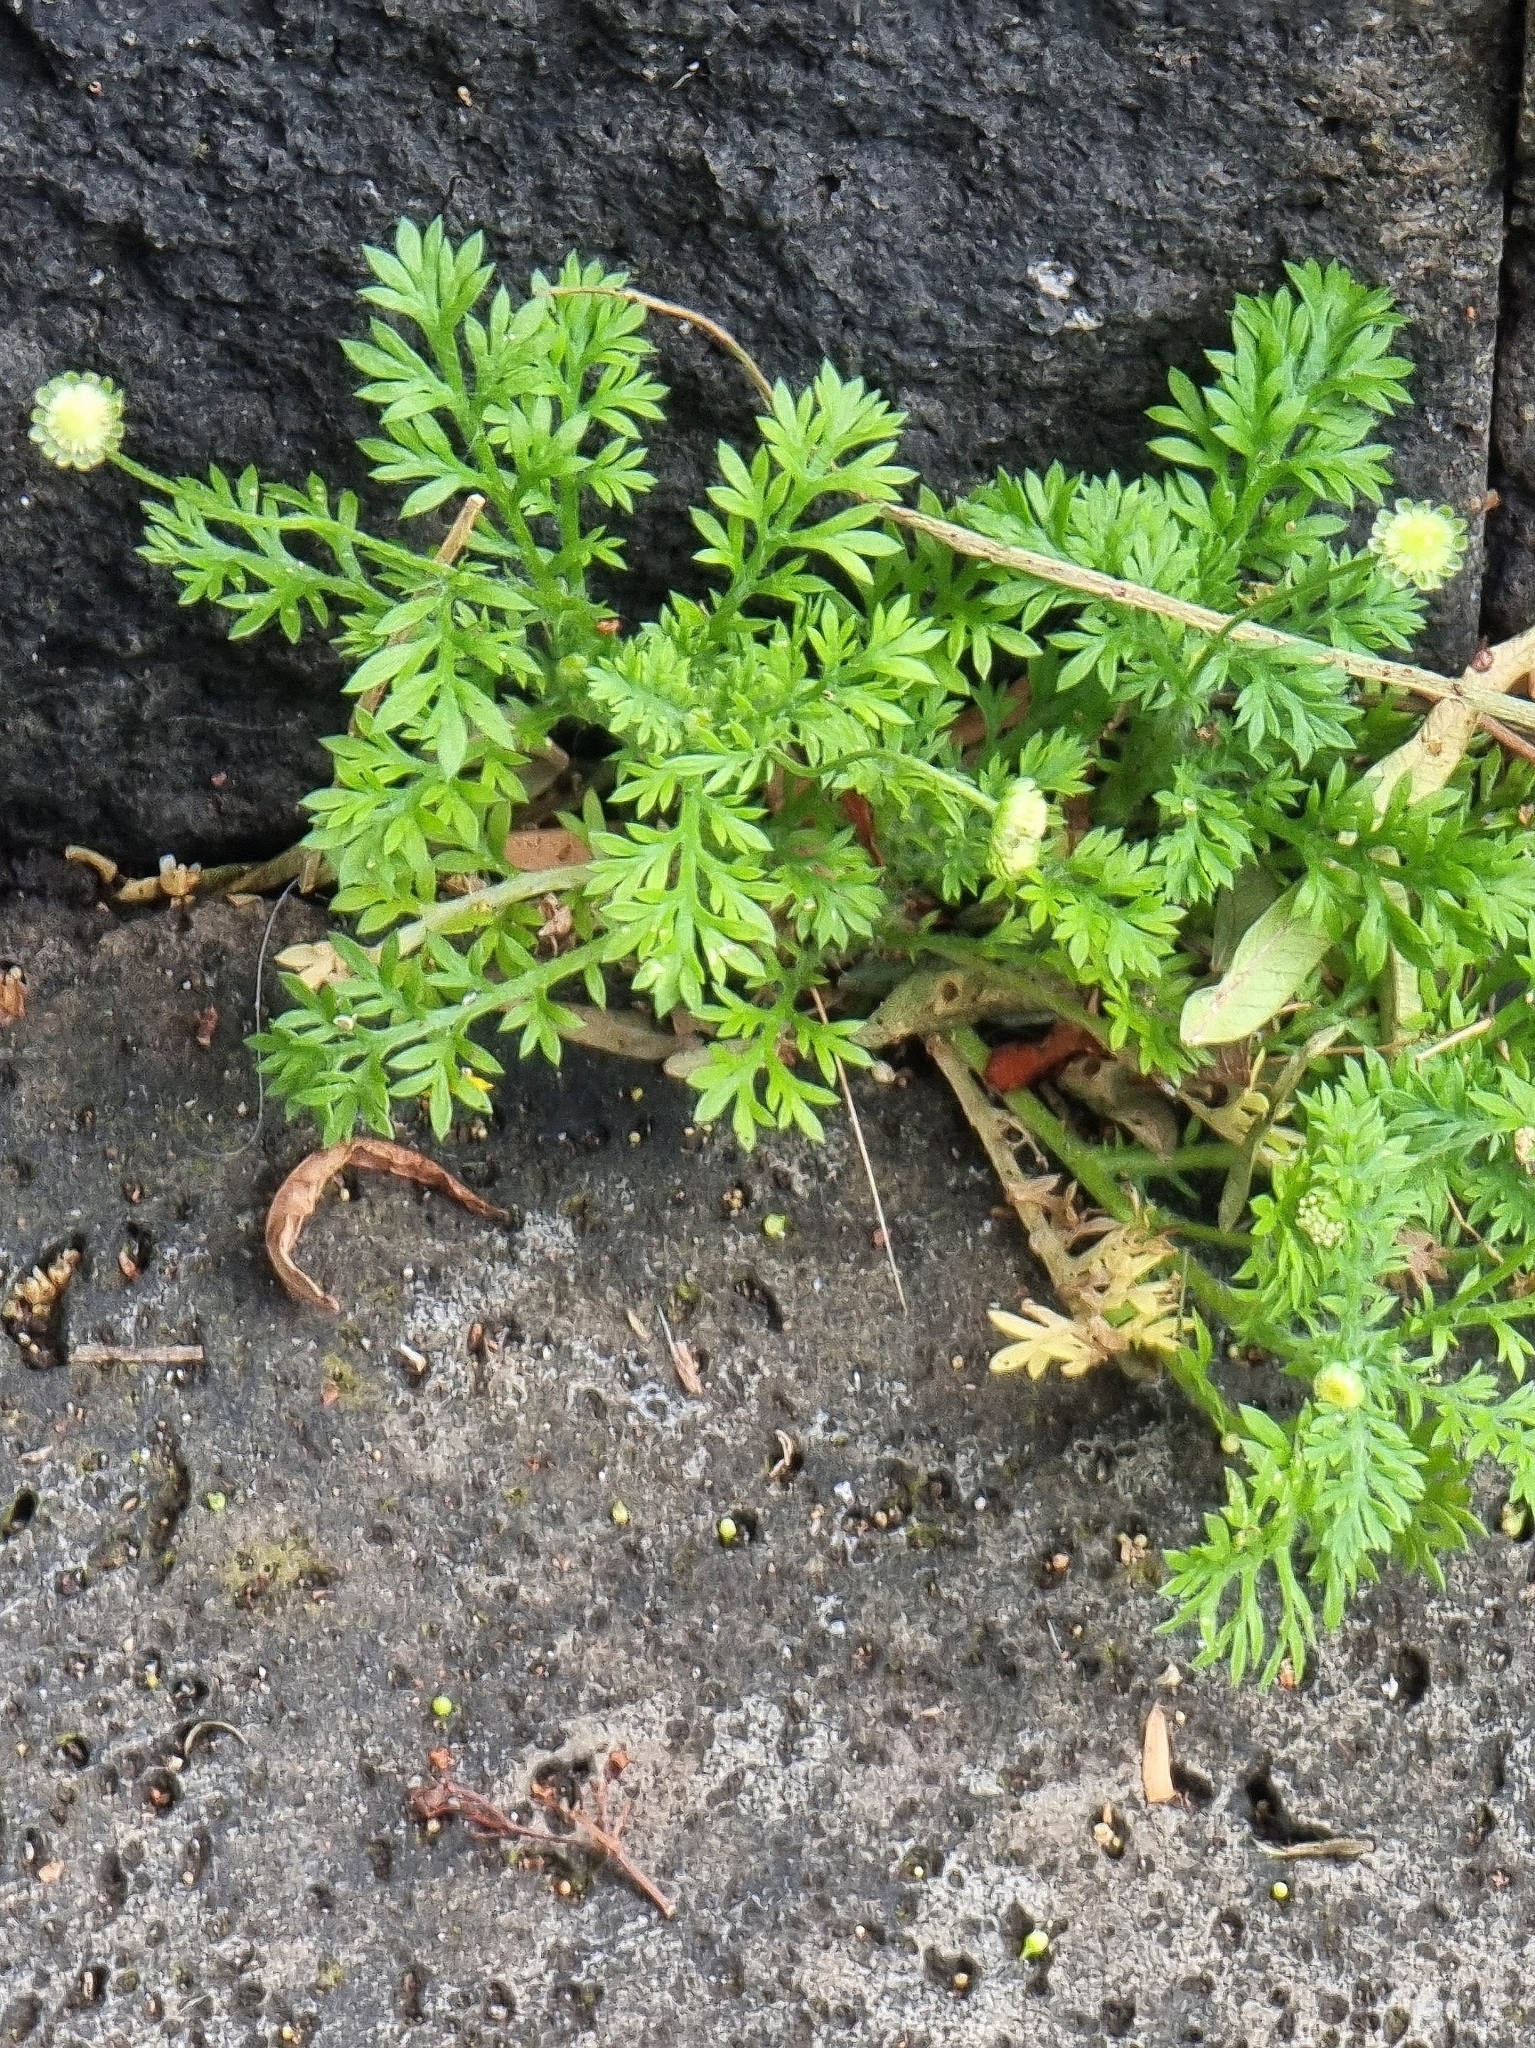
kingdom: Plantae
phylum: Tracheophyta
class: Magnoliopsida
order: Asterales
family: Asteraceae
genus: Cotula
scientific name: Cotula australis
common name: Australian waterbuttons
